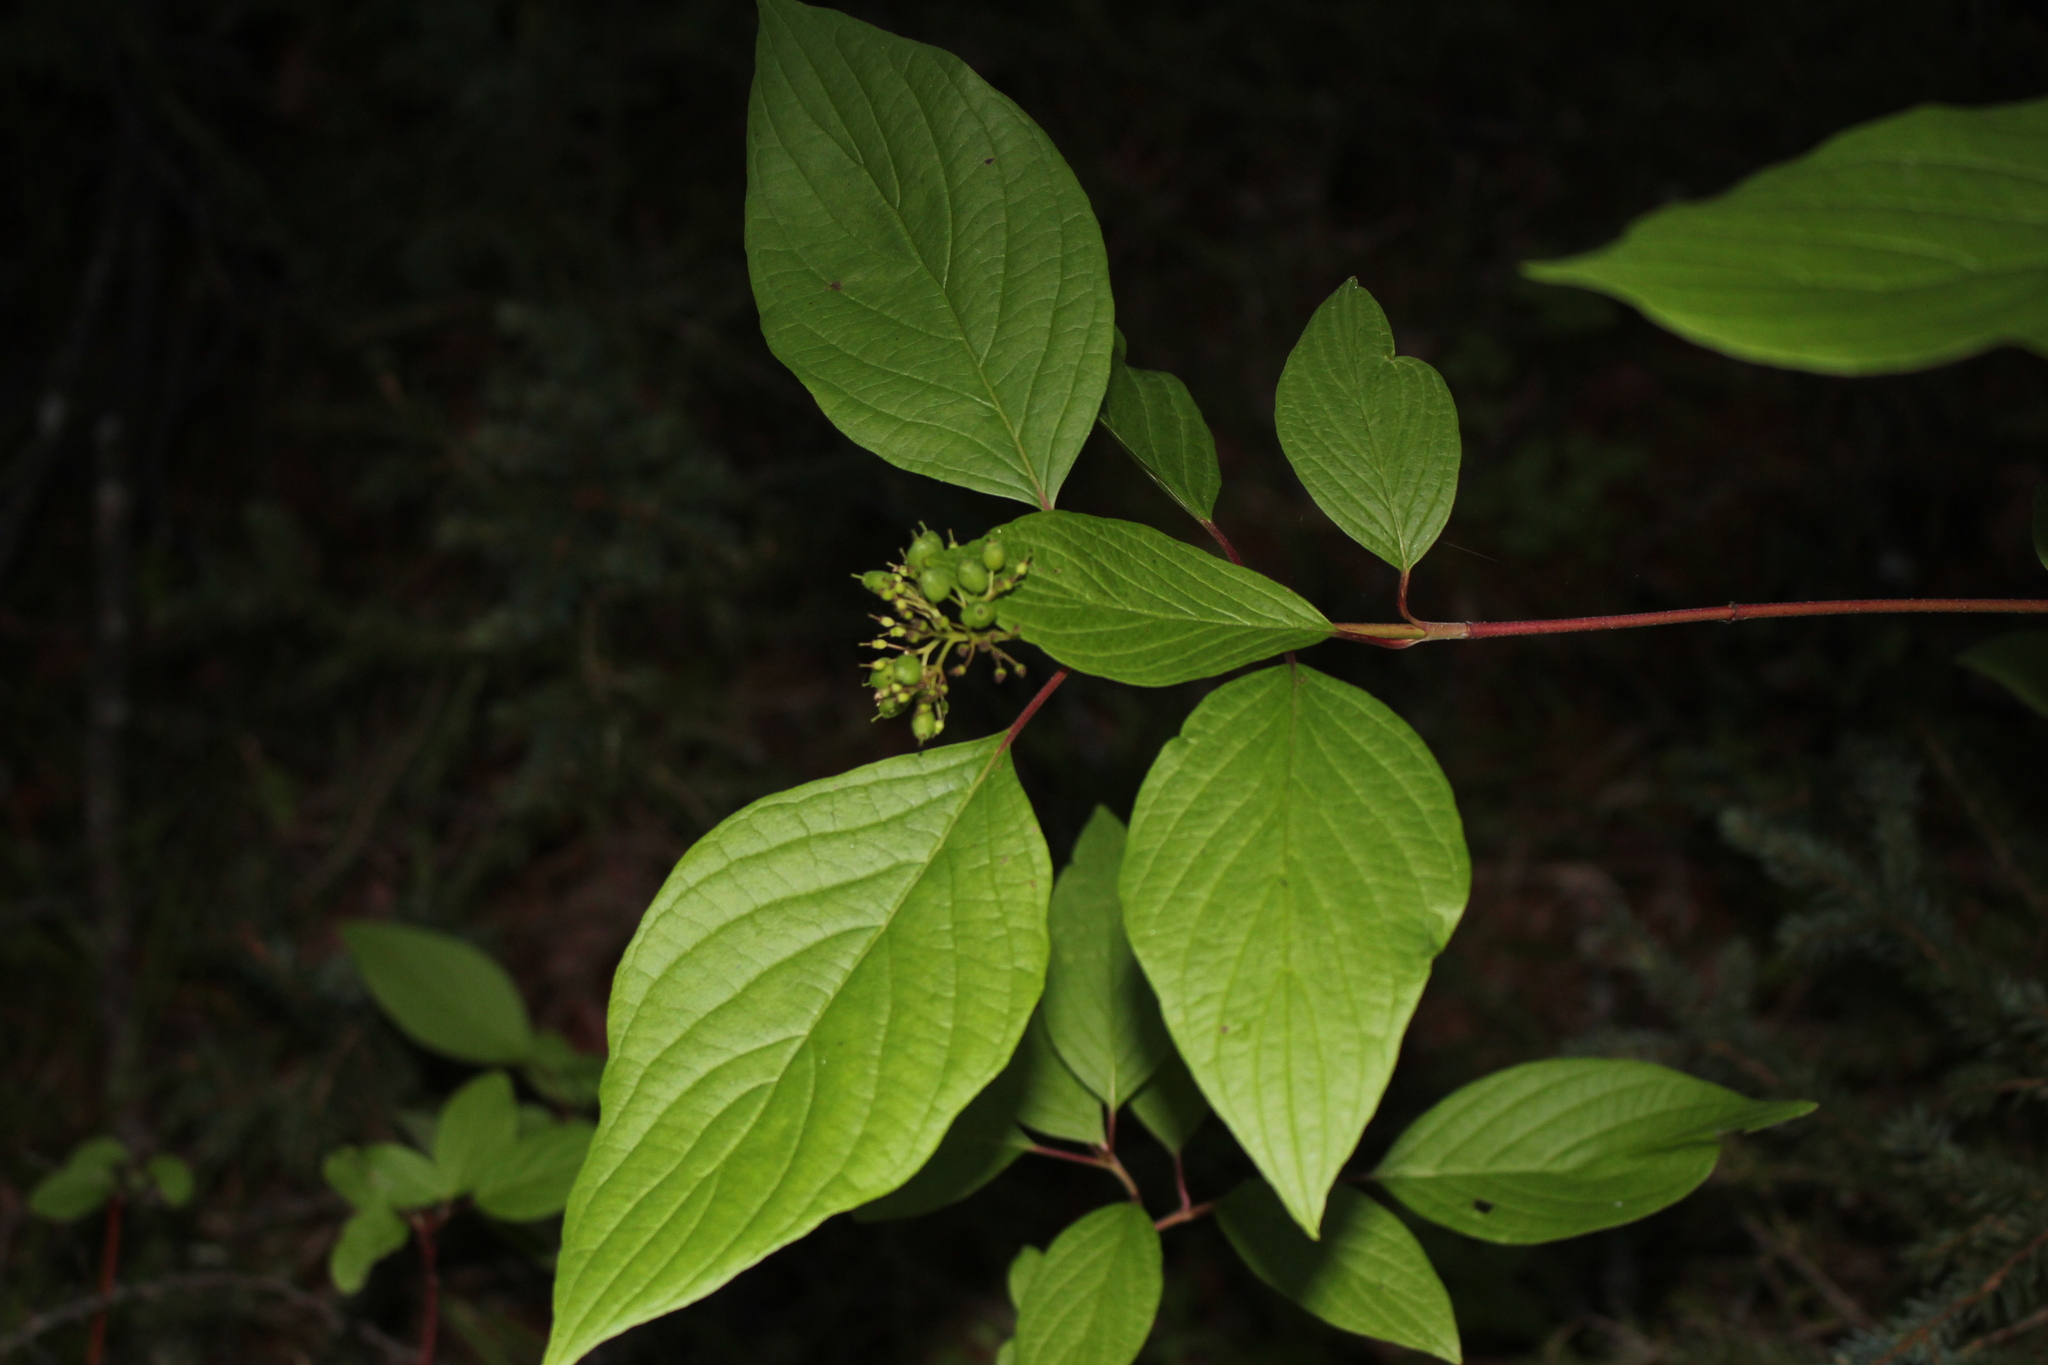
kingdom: Plantae
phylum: Tracheophyta
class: Magnoliopsida
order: Cornales
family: Cornaceae
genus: Cornus
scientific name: Cornus sericea
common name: Red-osier dogwood
